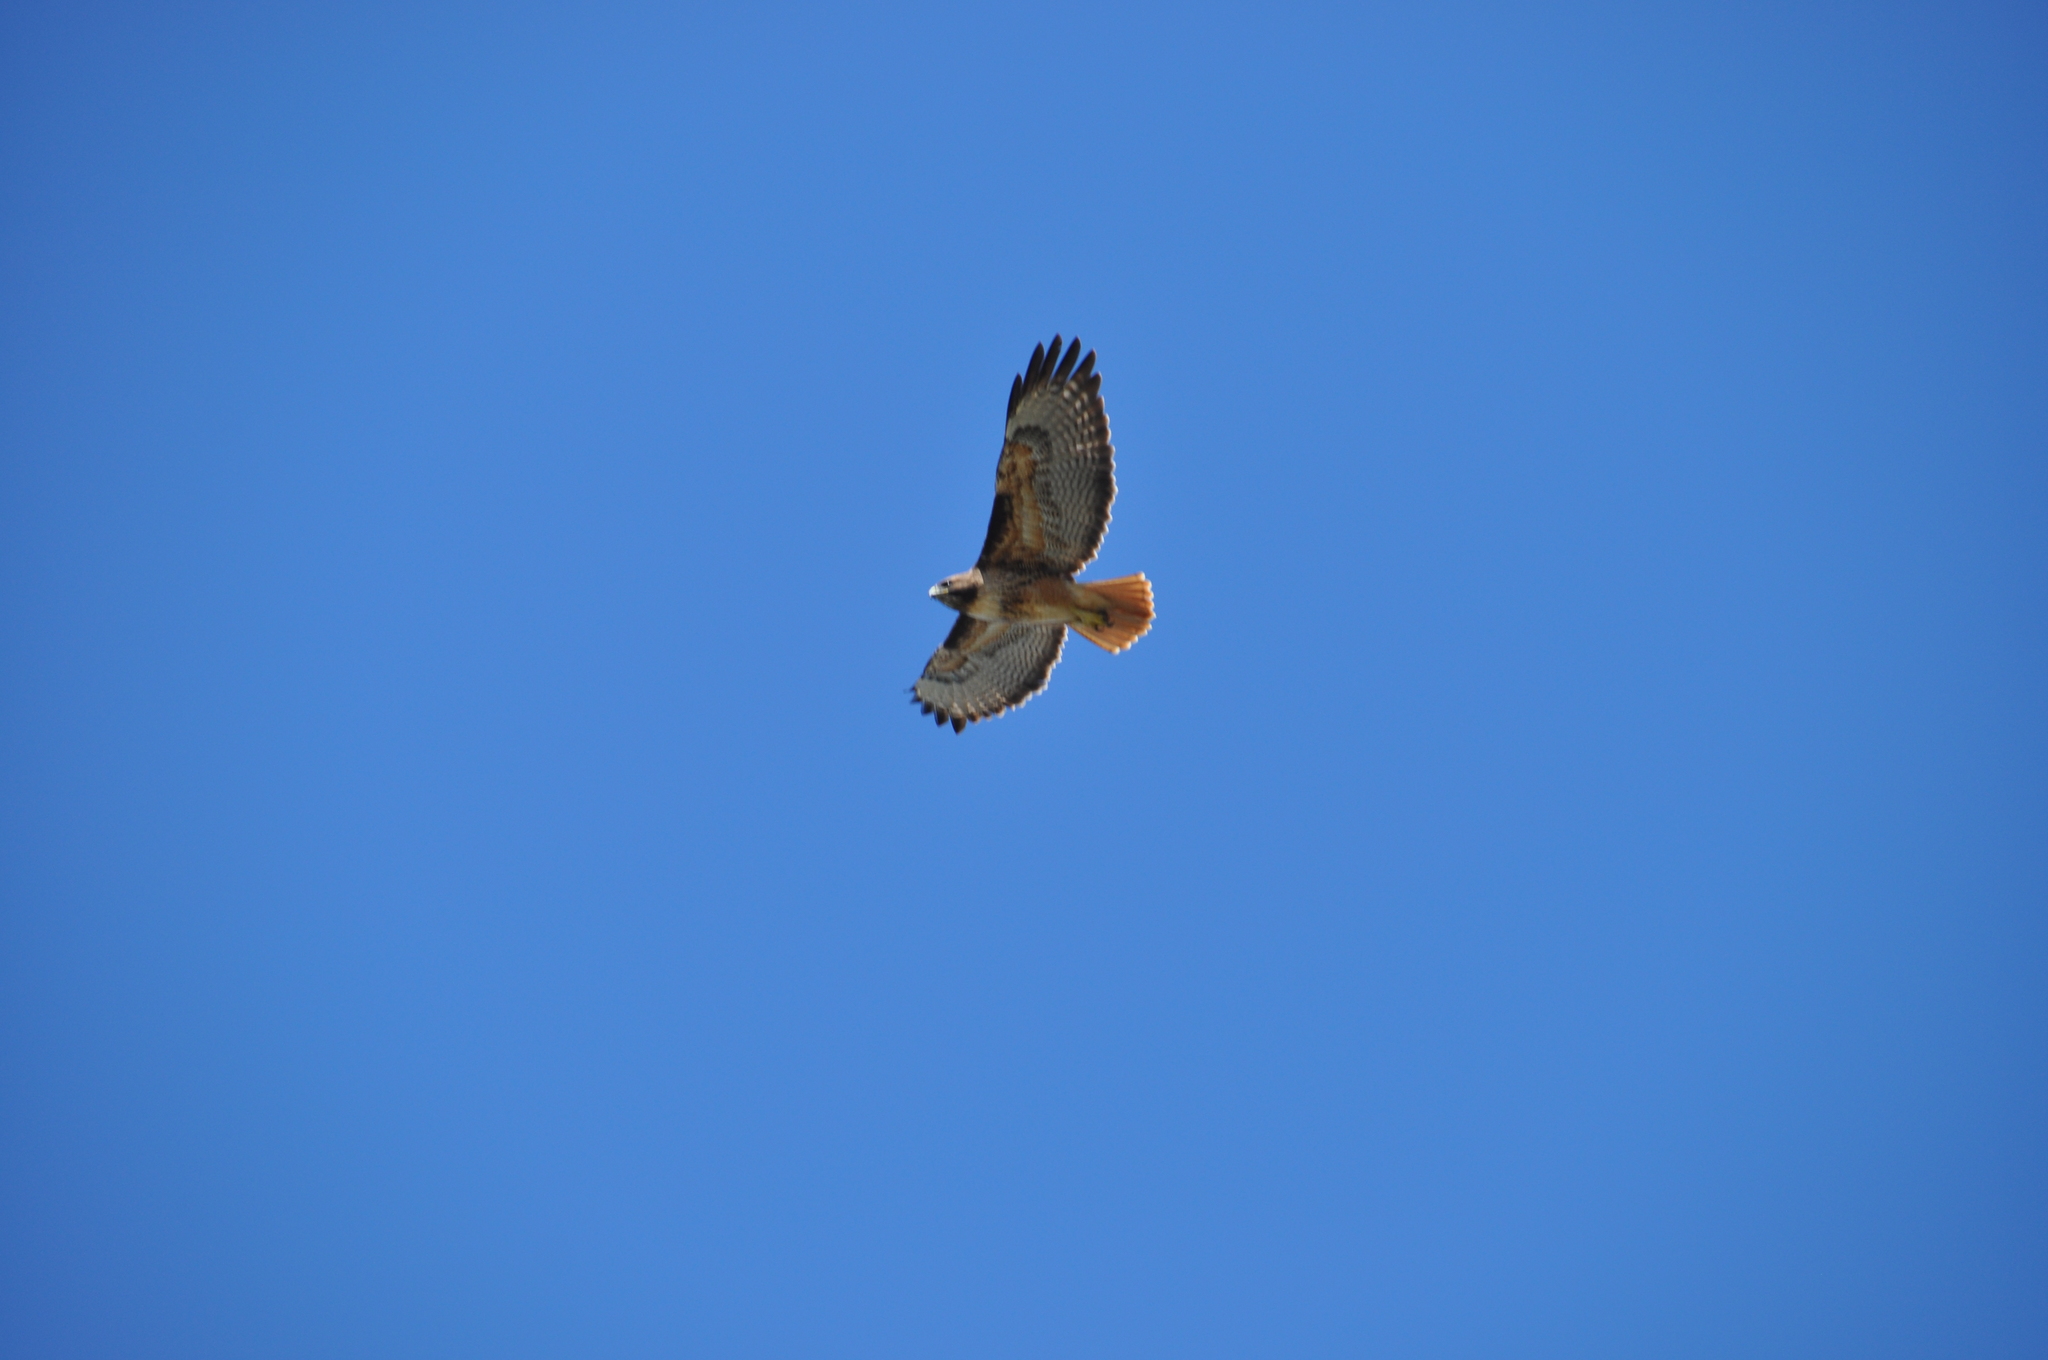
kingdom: Animalia
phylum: Chordata
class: Aves
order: Accipitriformes
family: Accipitridae
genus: Buteo
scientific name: Buteo jamaicensis
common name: Red-tailed hawk
